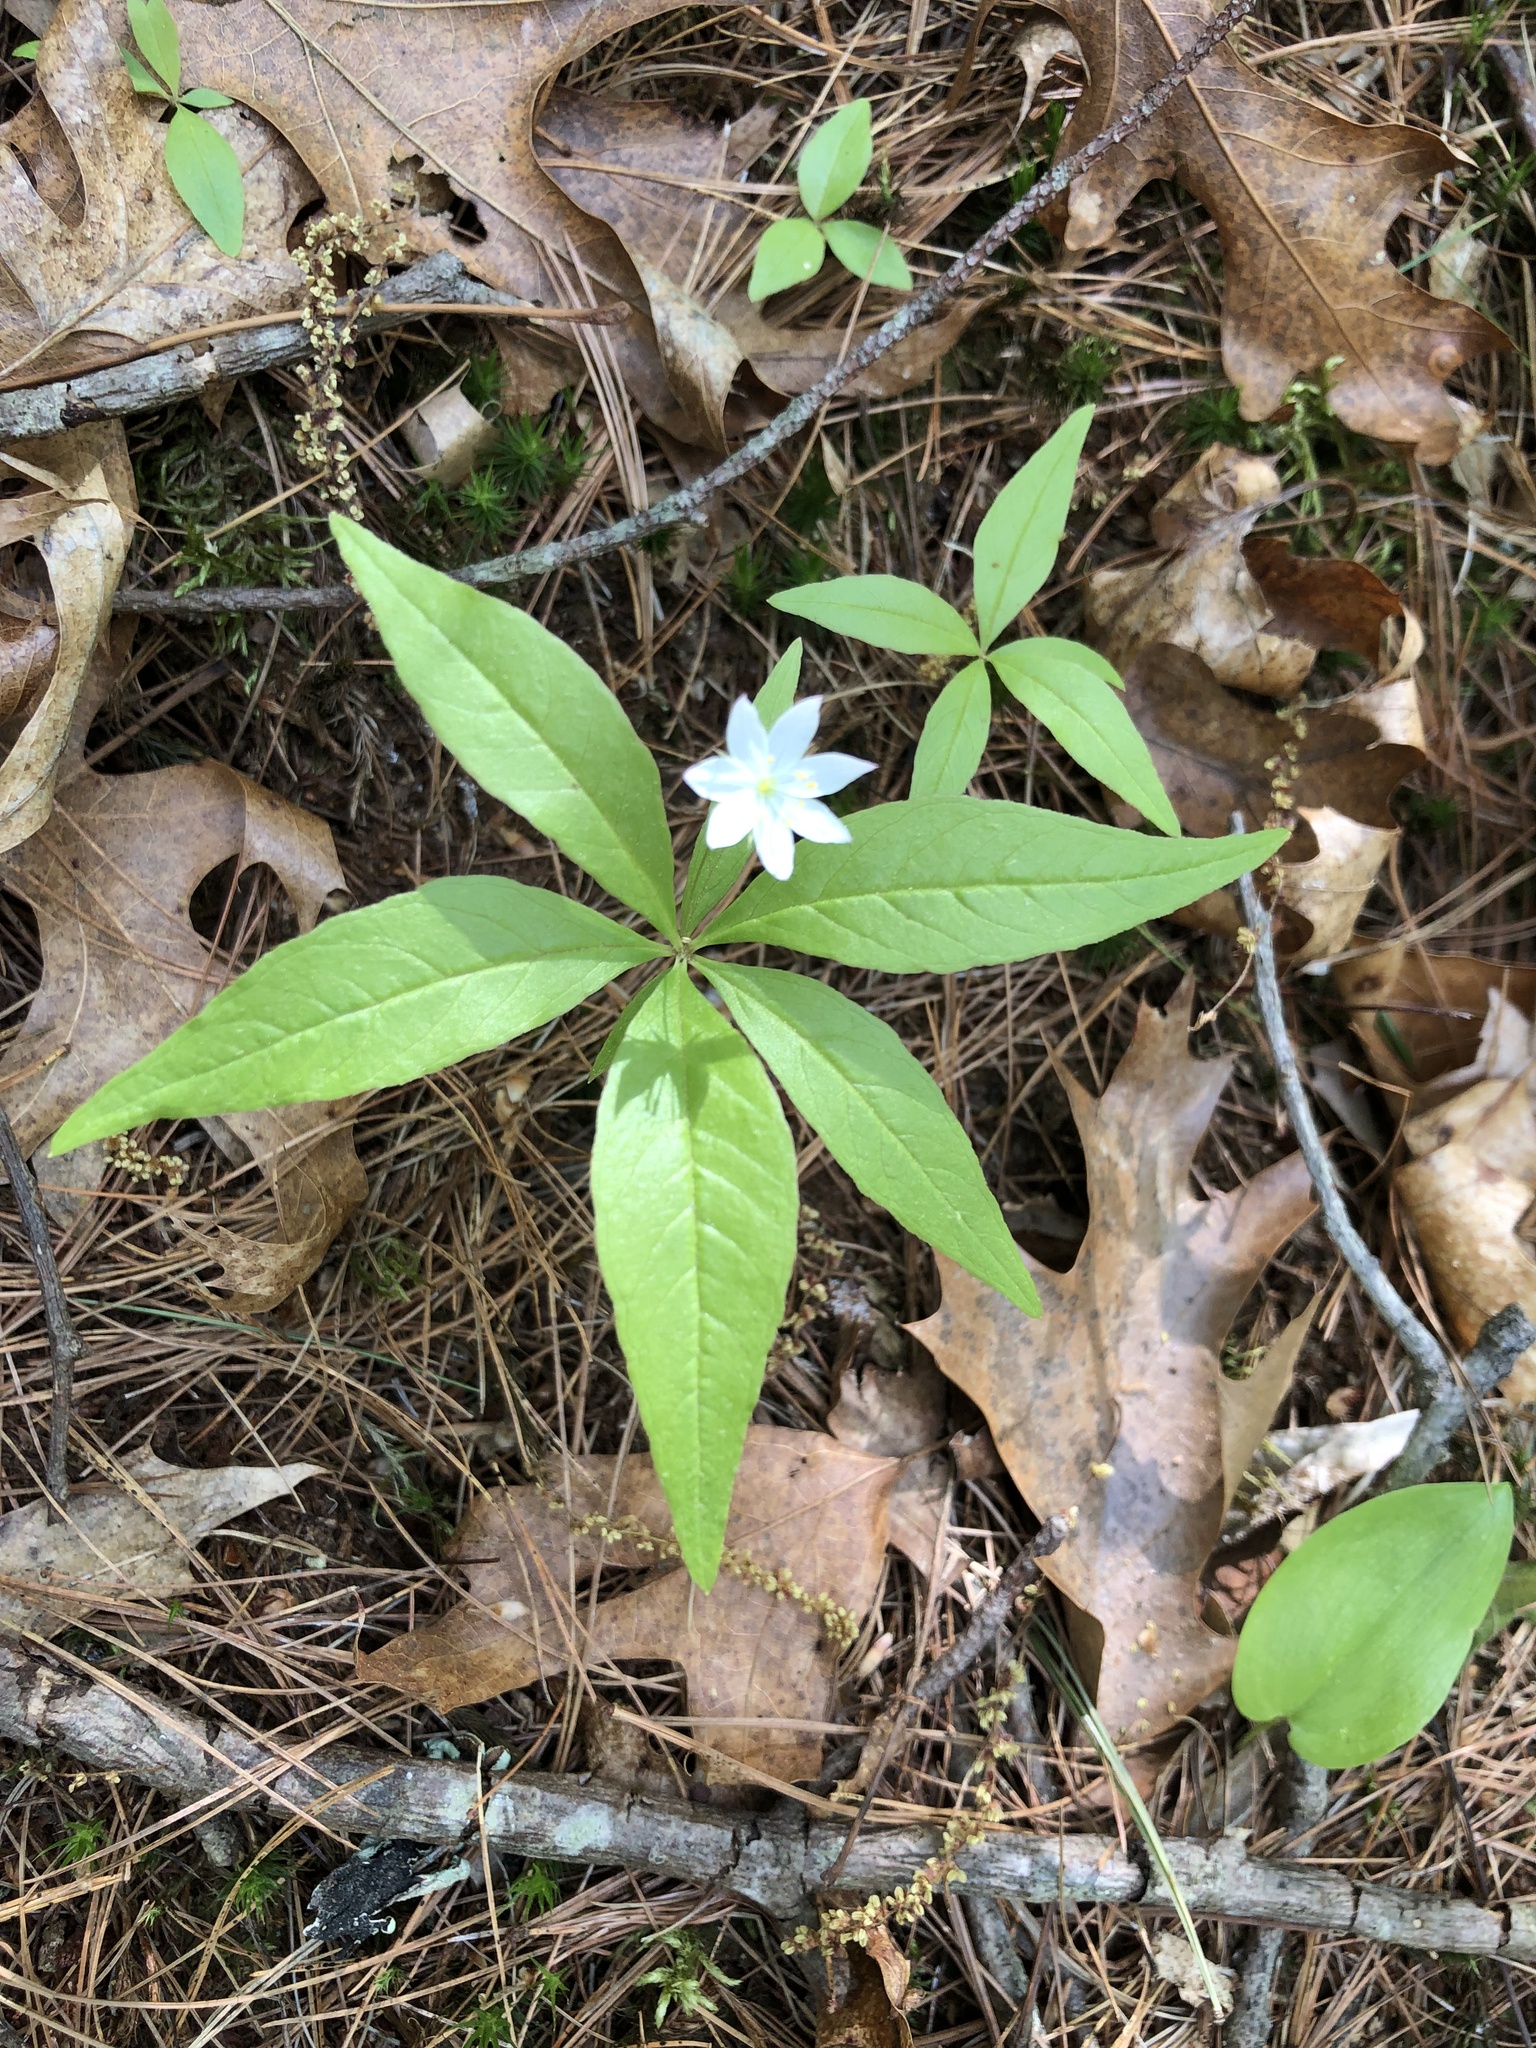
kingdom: Plantae
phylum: Tracheophyta
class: Magnoliopsida
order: Ericales
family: Primulaceae
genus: Lysimachia
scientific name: Lysimachia borealis
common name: American starflower
